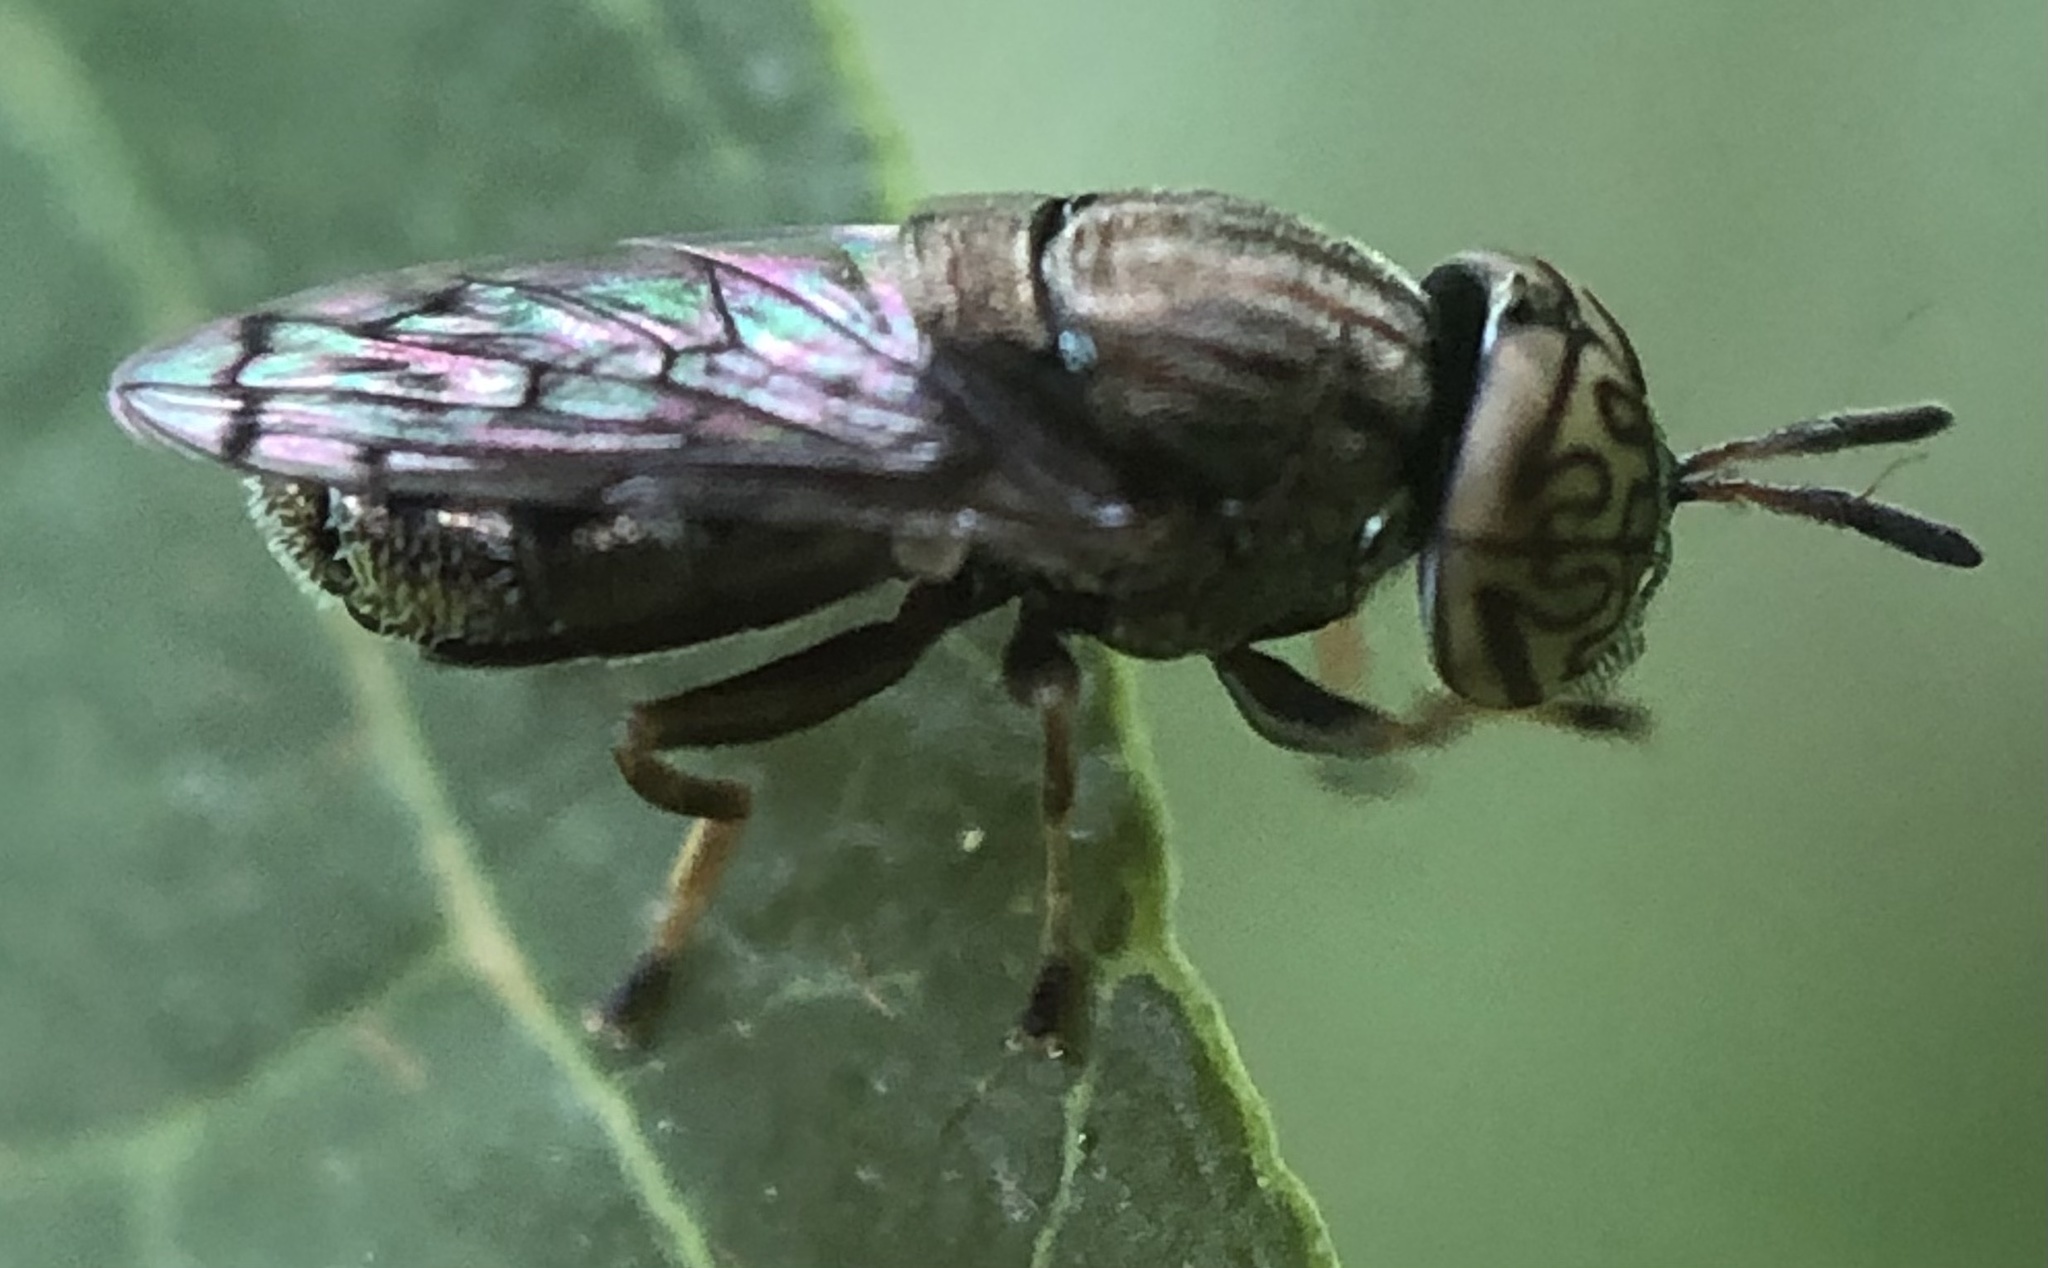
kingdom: Animalia
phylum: Arthropoda
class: Insecta
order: Diptera
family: Syrphidae
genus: Orthonevra
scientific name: Orthonevra nitida
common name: Wavy mucksucker
